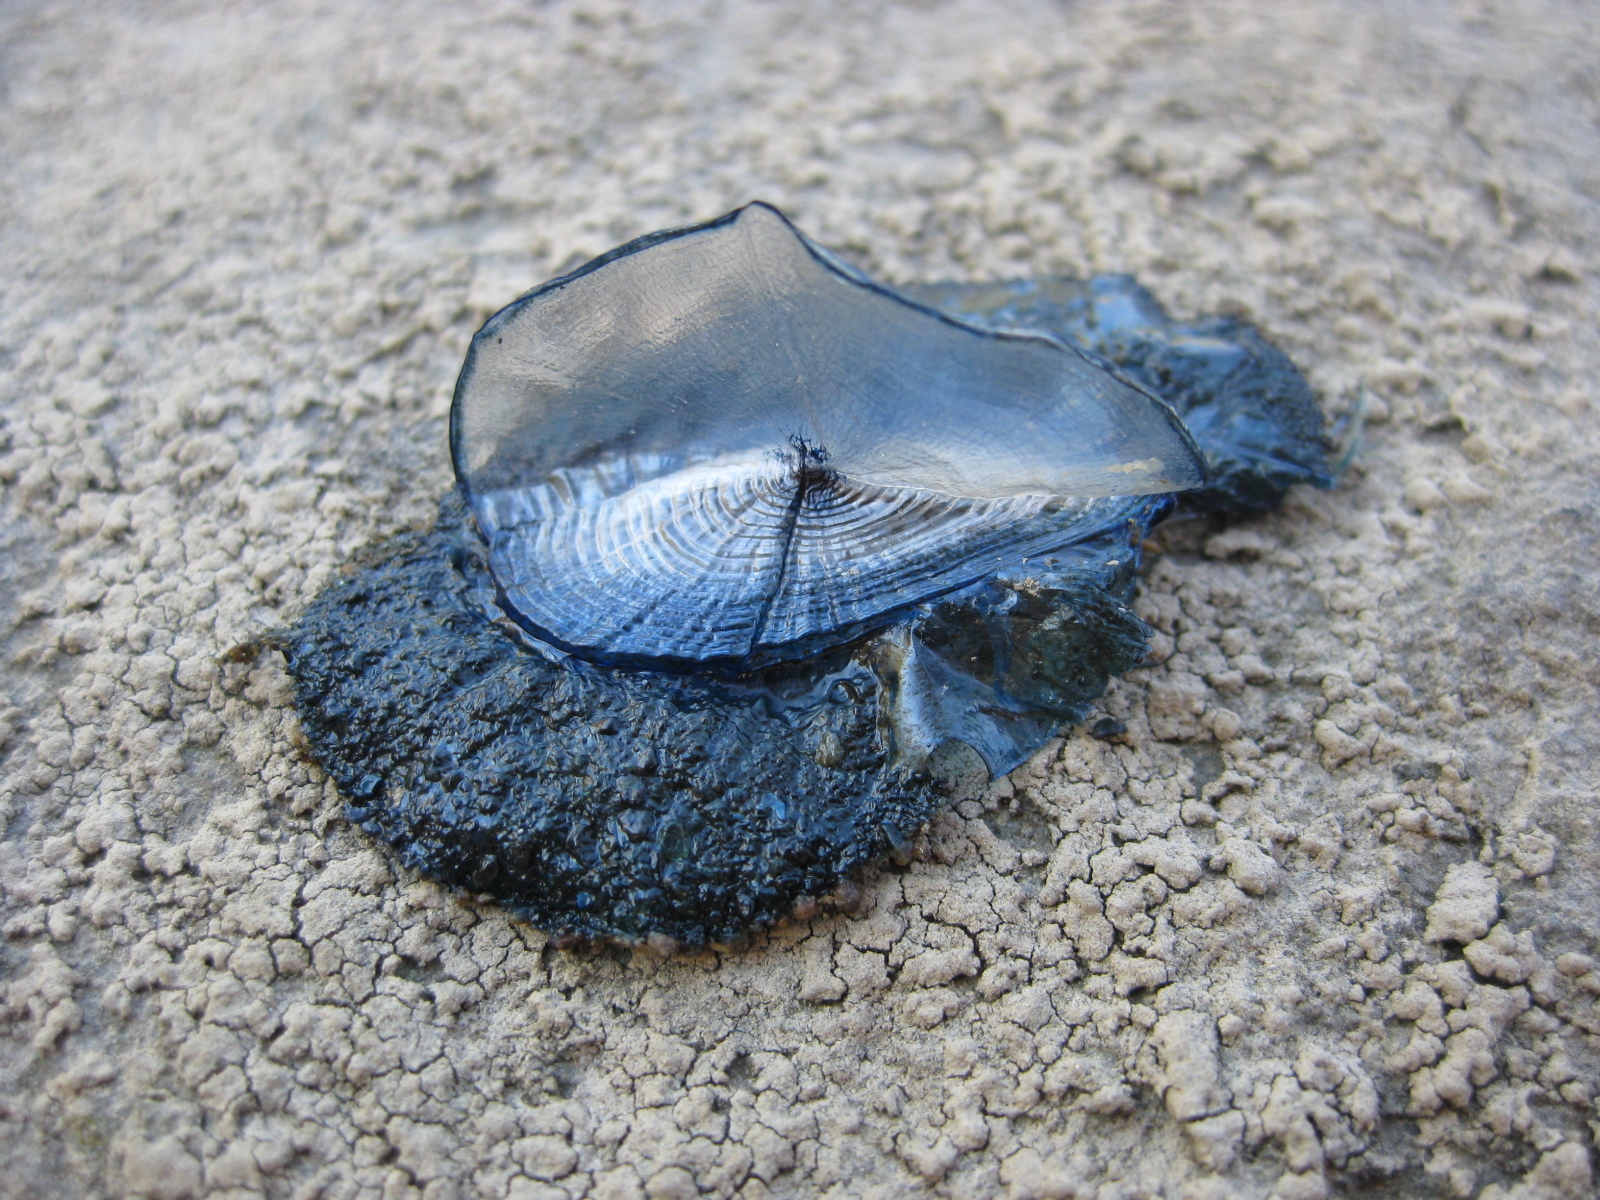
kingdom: Animalia
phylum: Cnidaria
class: Hydrozoa
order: Anthoathecata
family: Porpitidae
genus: Velella
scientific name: Velella velella
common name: By-the-wind-sailor
